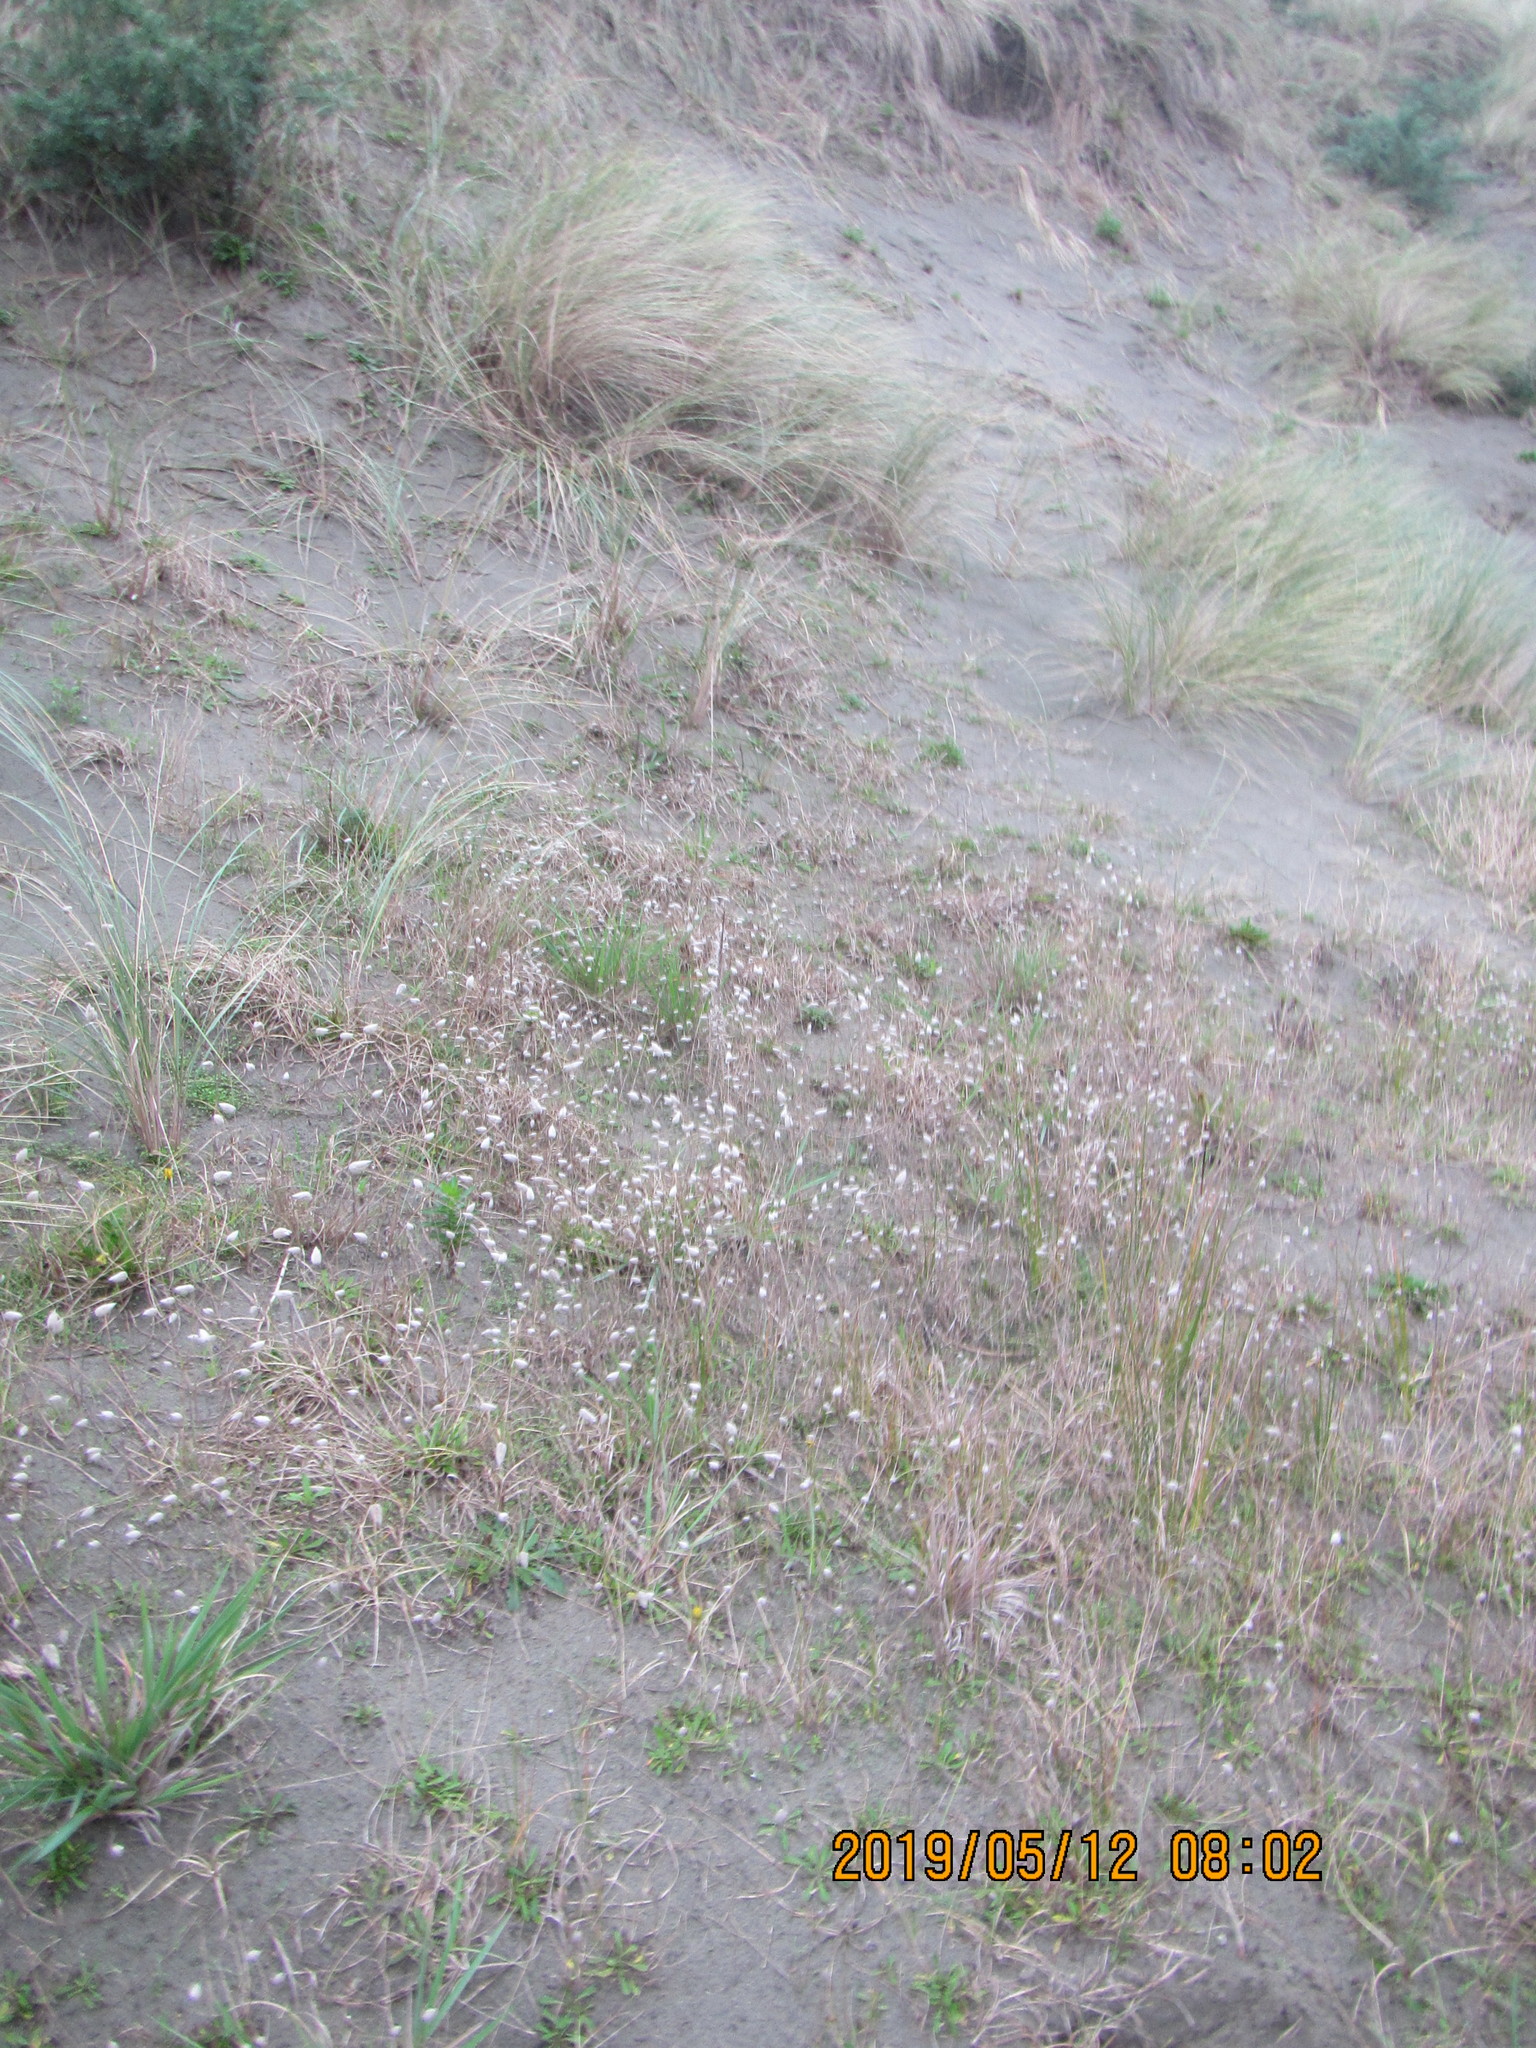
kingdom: Plantae
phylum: Tracheophyta
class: Liliopsida
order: Poales
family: Poaceae
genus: Lagurus
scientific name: Lagurus ovatus
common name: Hare's-tail
